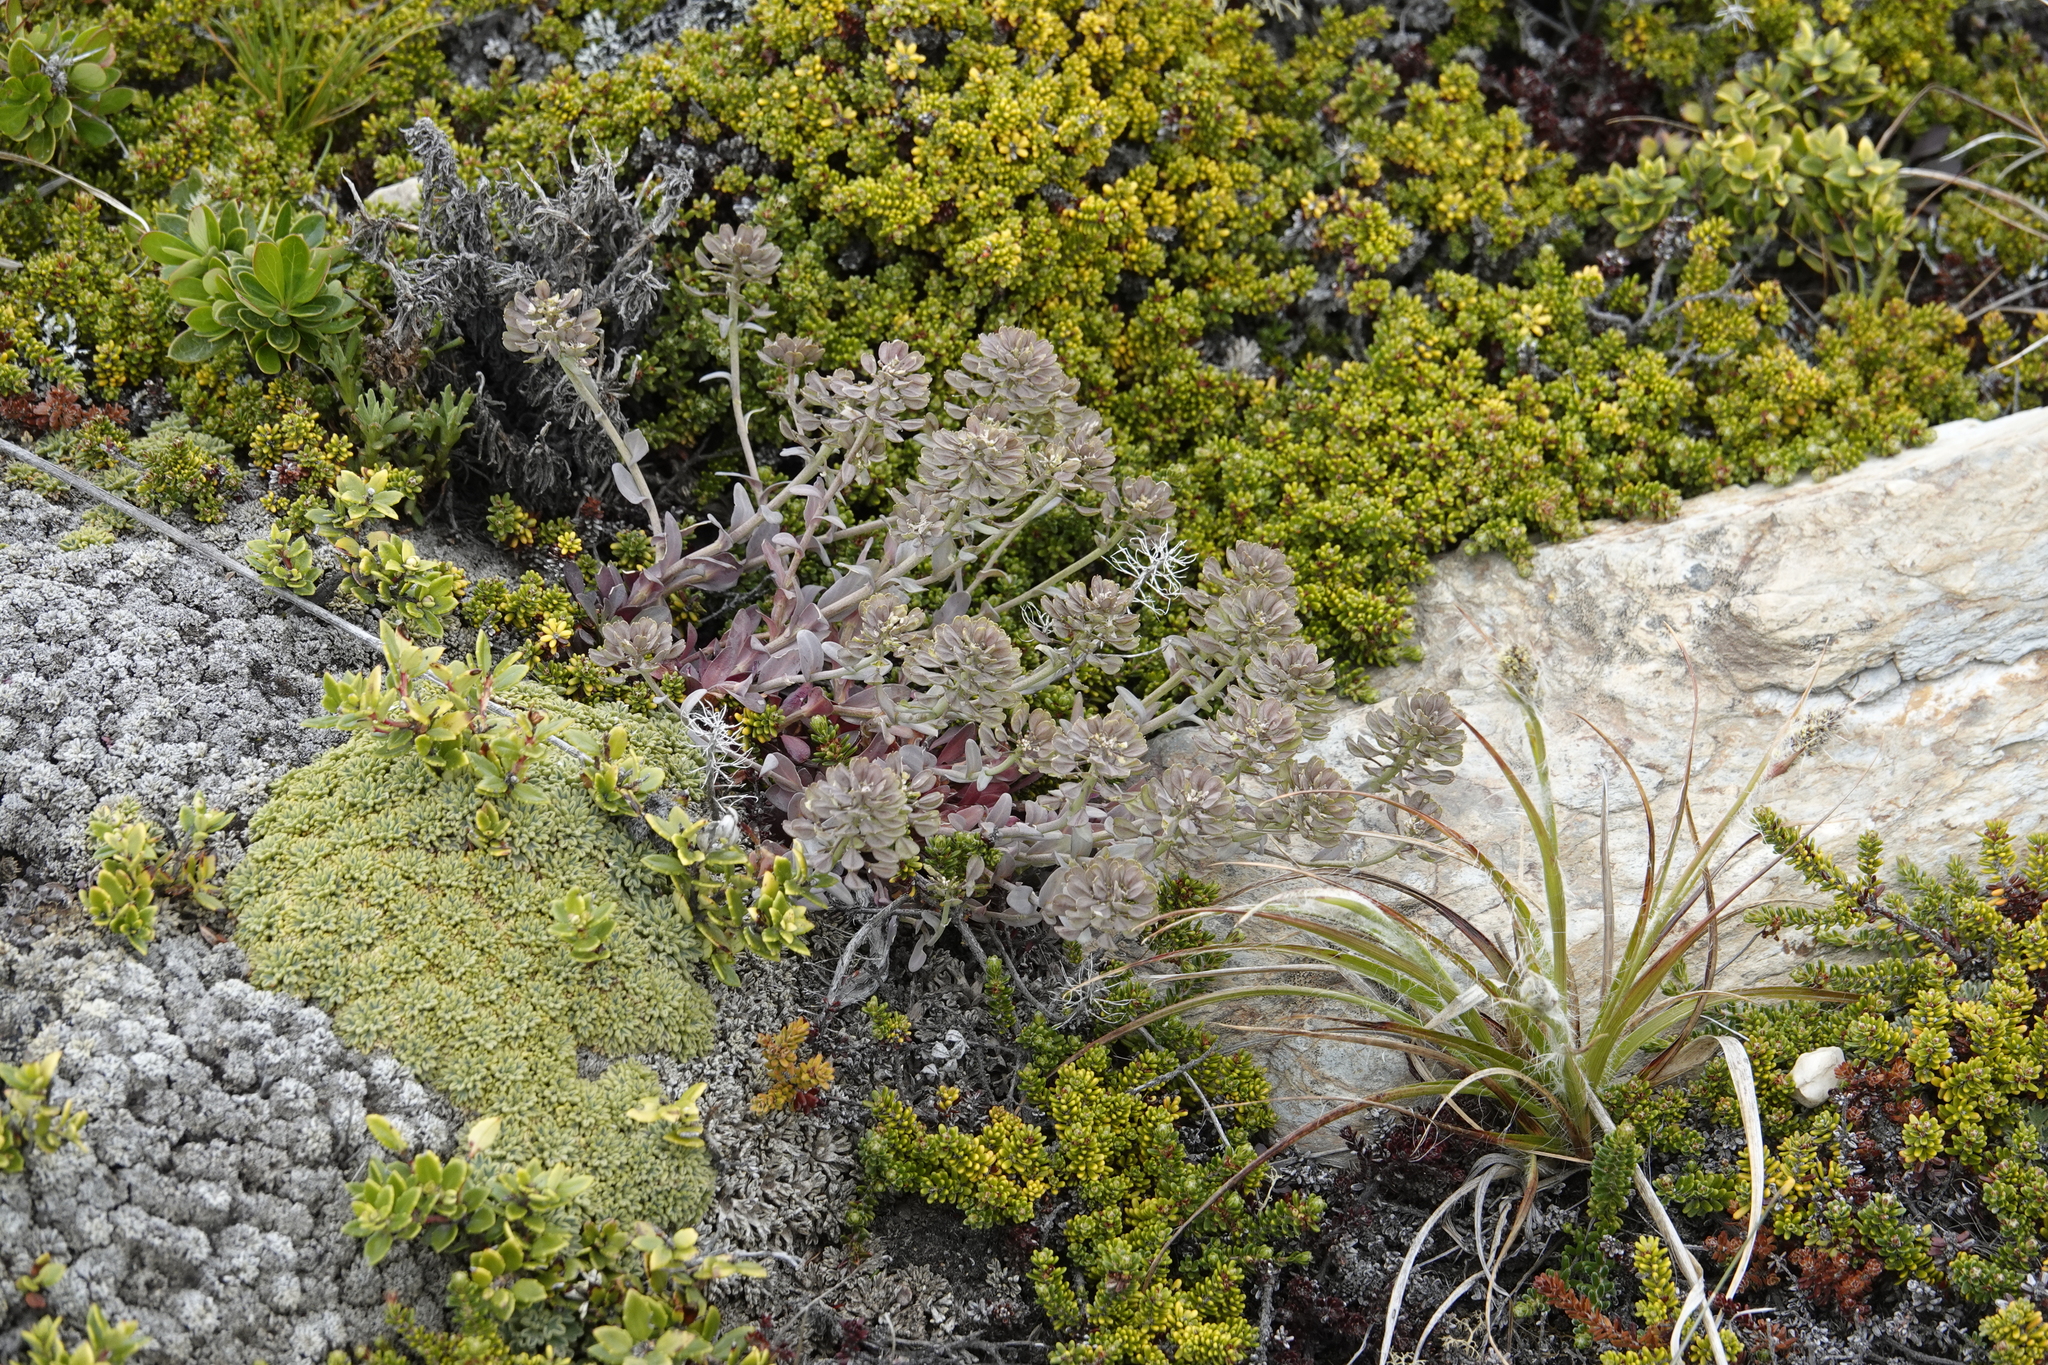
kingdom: Plantae
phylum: Tracheophyta
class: Magnoliopsida
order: Brassicales
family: Brassicaceae
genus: Noccaea
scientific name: Noccaea magellanica
